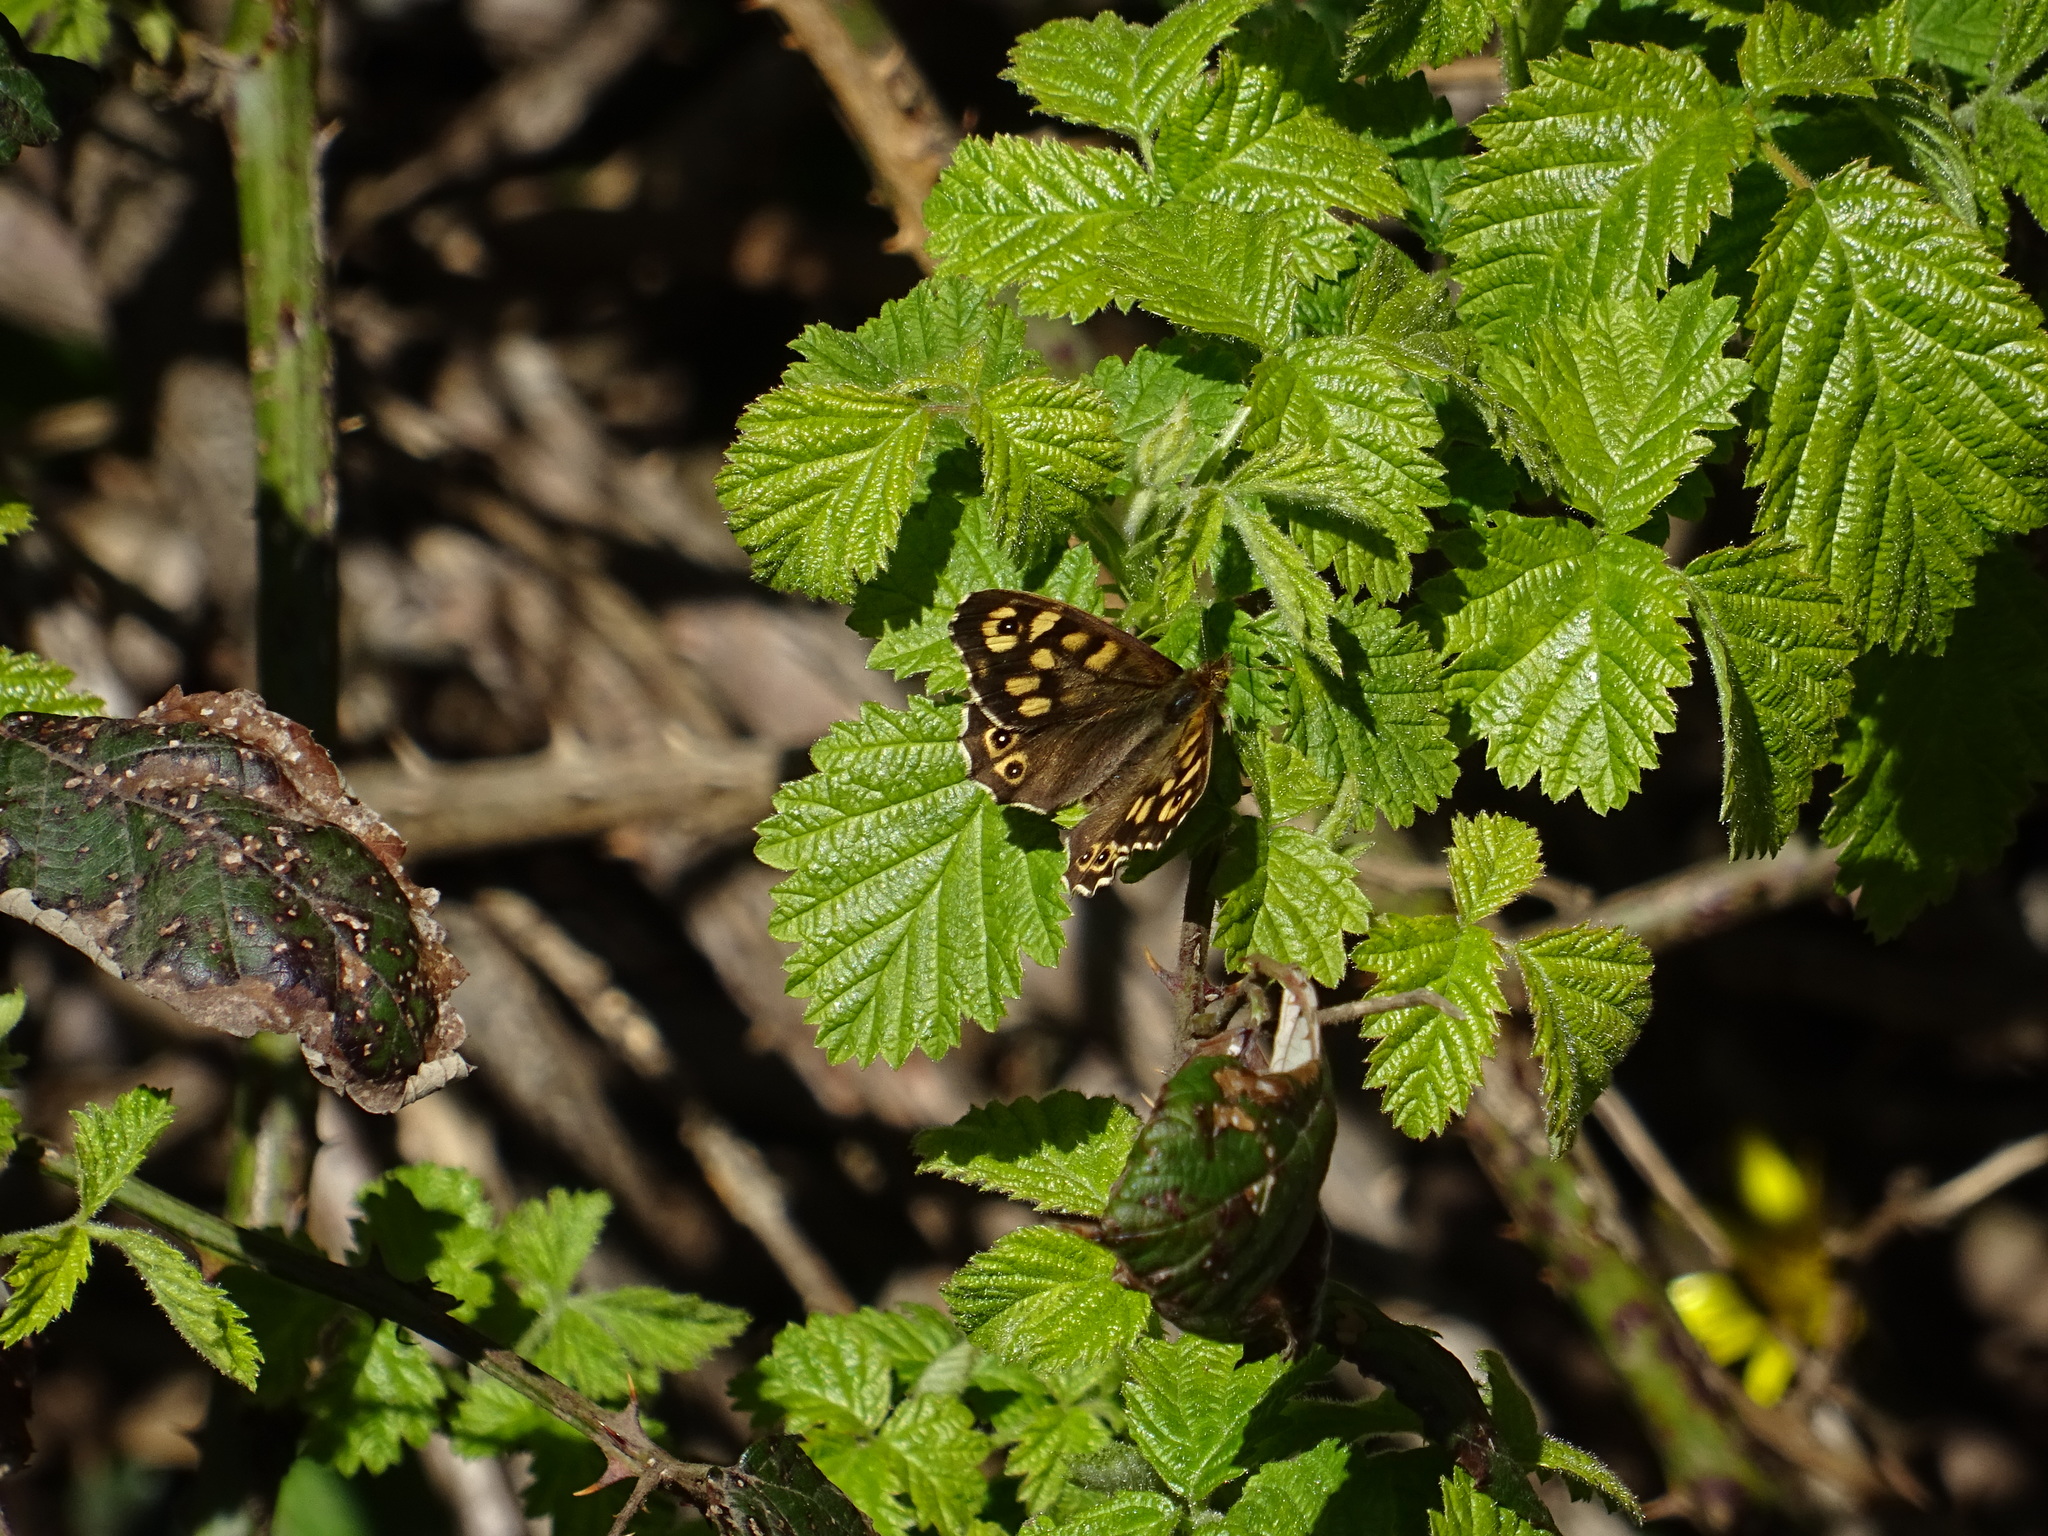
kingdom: Animalia
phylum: Arthropoda
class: Insecta
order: Lepidoptera
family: Nymphalidae
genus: Pararge
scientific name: Pararge aegeria
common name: Speckled wood
